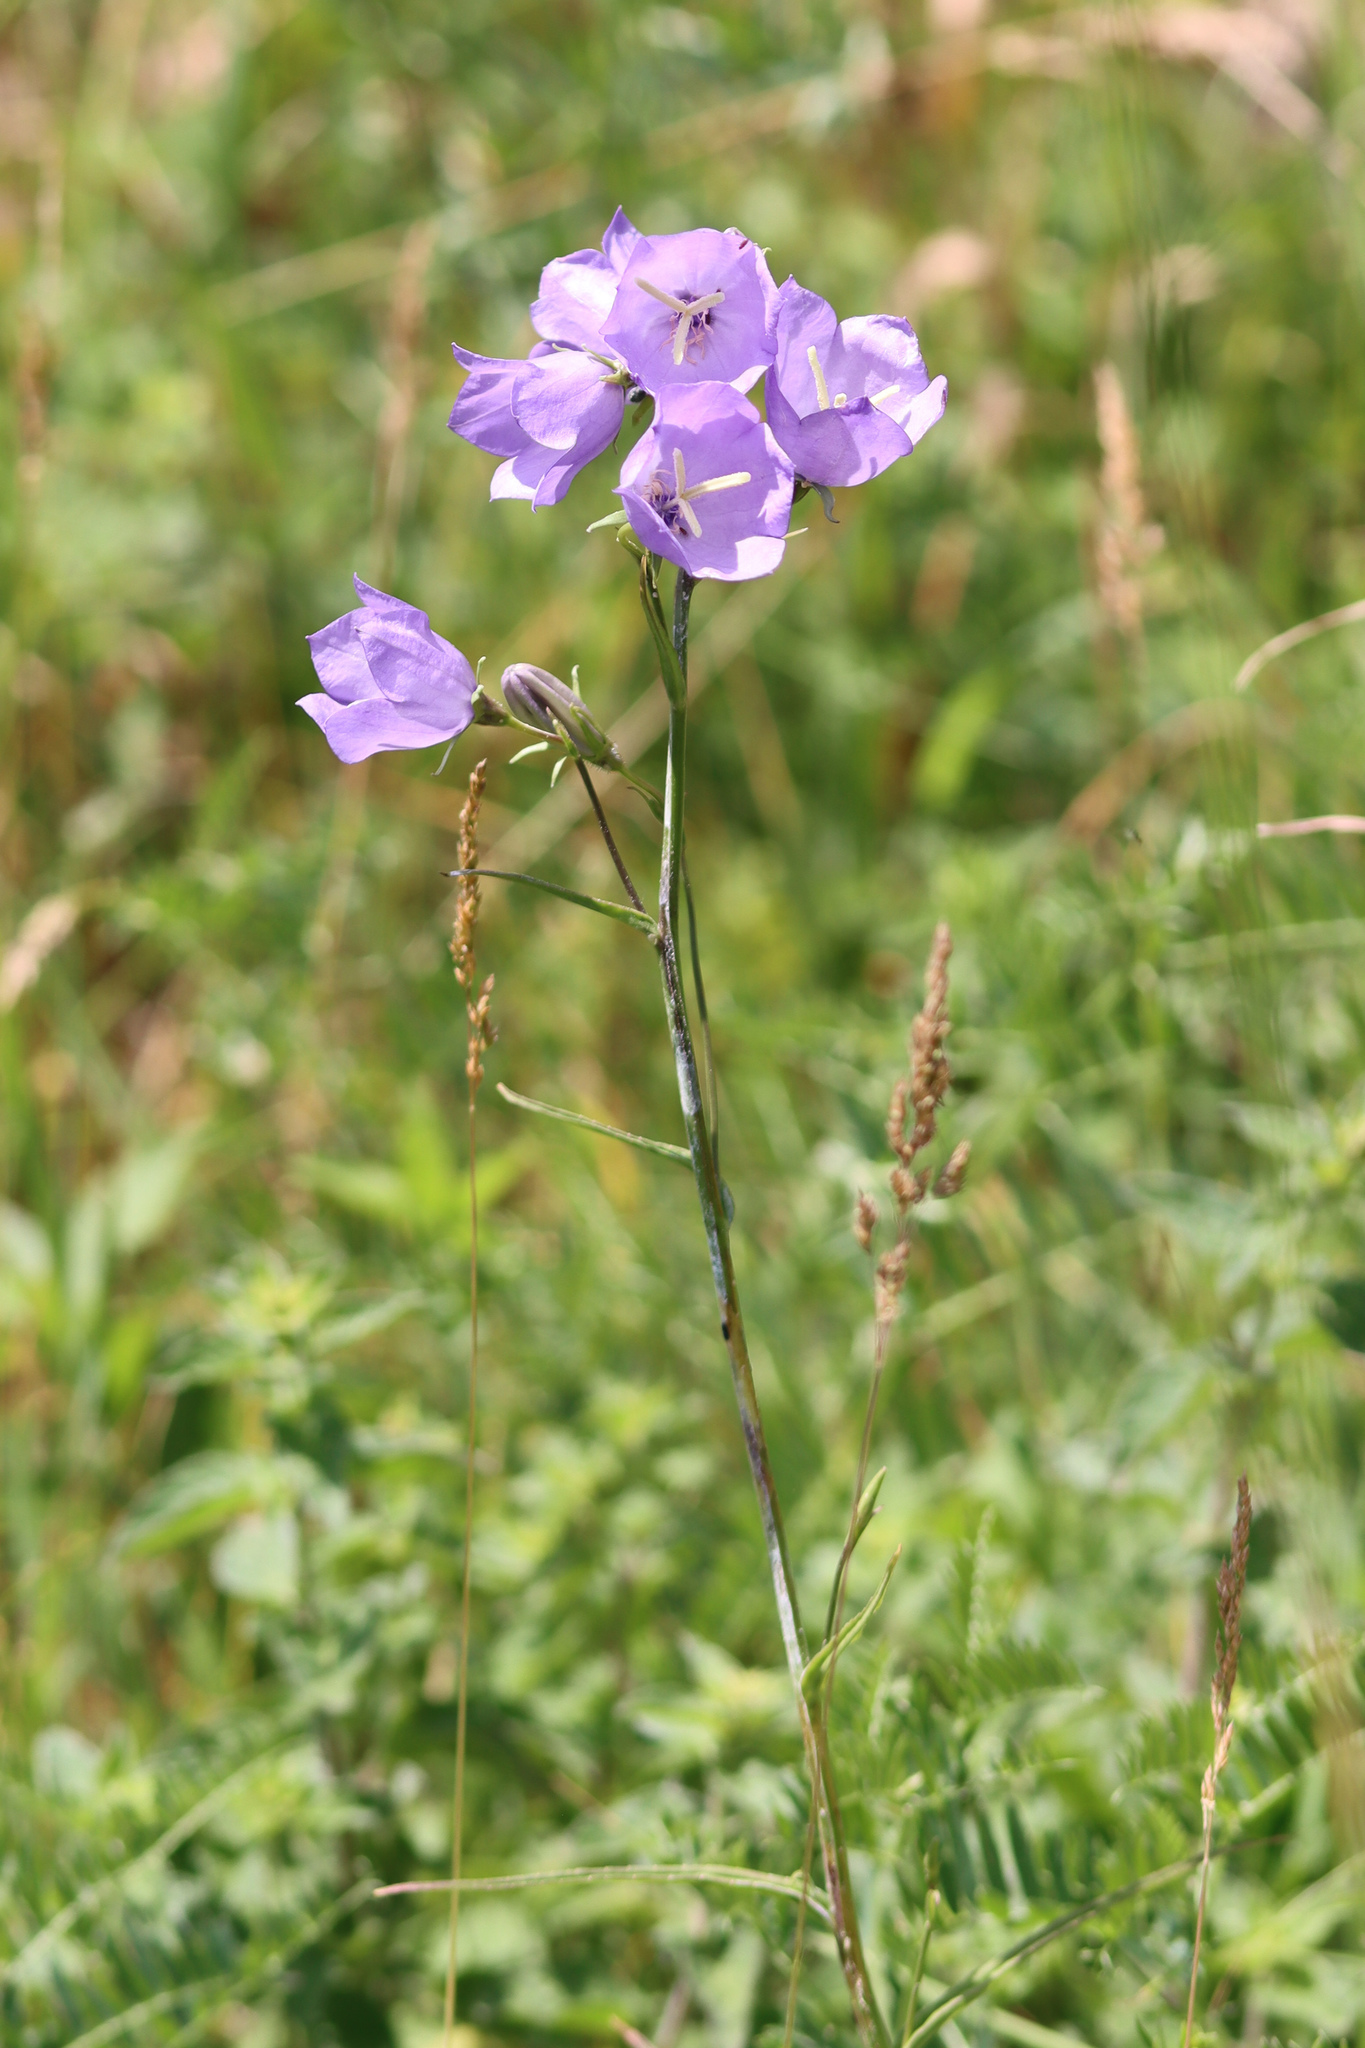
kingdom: Plantae
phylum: Tracheophyta
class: Magnoliopsida
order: Asterales
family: Campanulaceae
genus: Campanula
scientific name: Campanula persicifolia
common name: Peach-leaved bellflower
